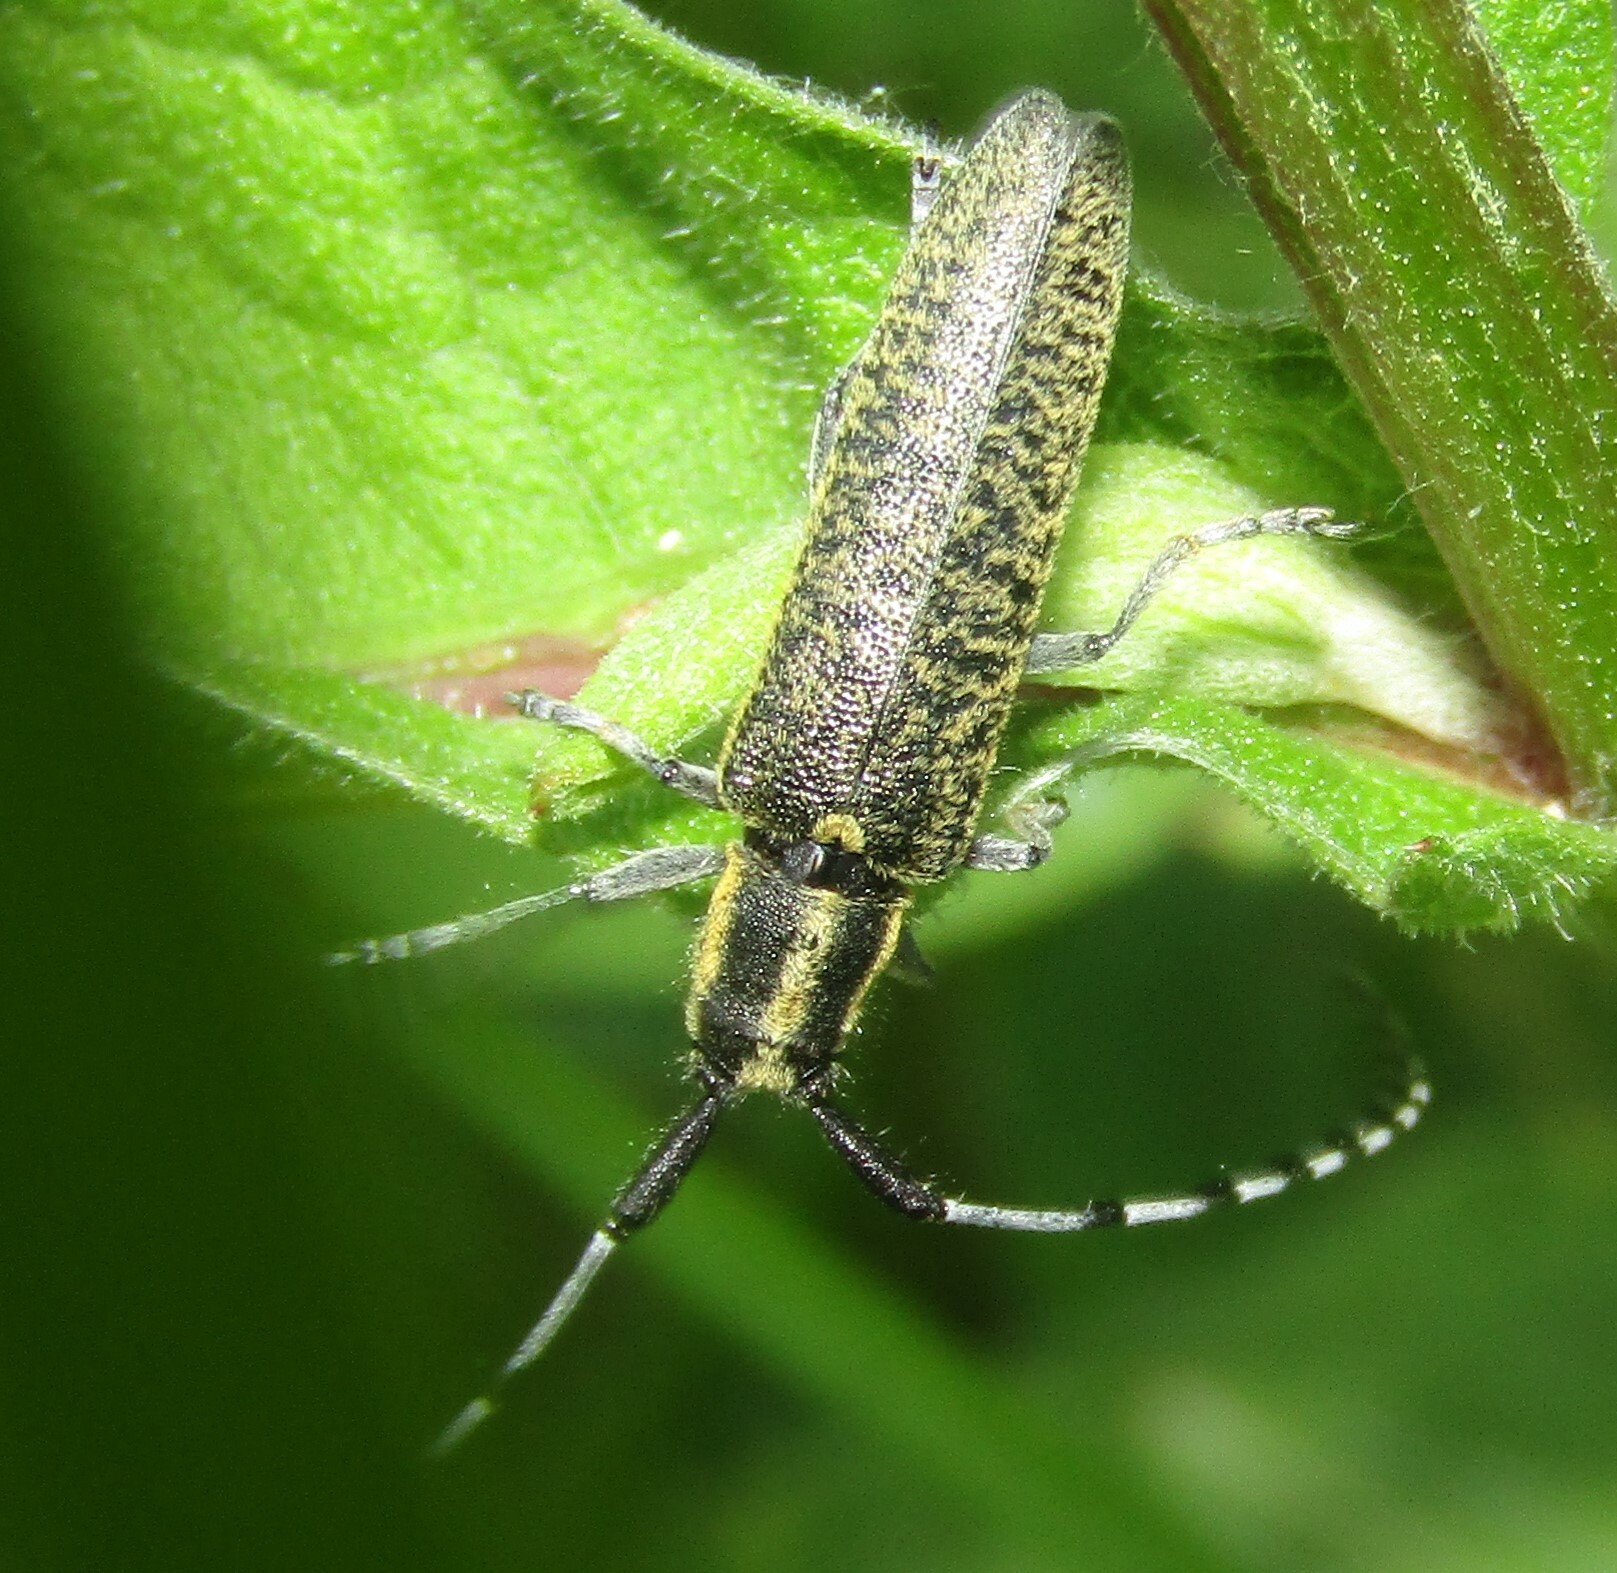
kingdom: Animalia
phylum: Arthropoda
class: Insecta
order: Coleoptera
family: Cerambycidae
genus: Agapanthia
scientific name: Agapanthia villosoviridescens
